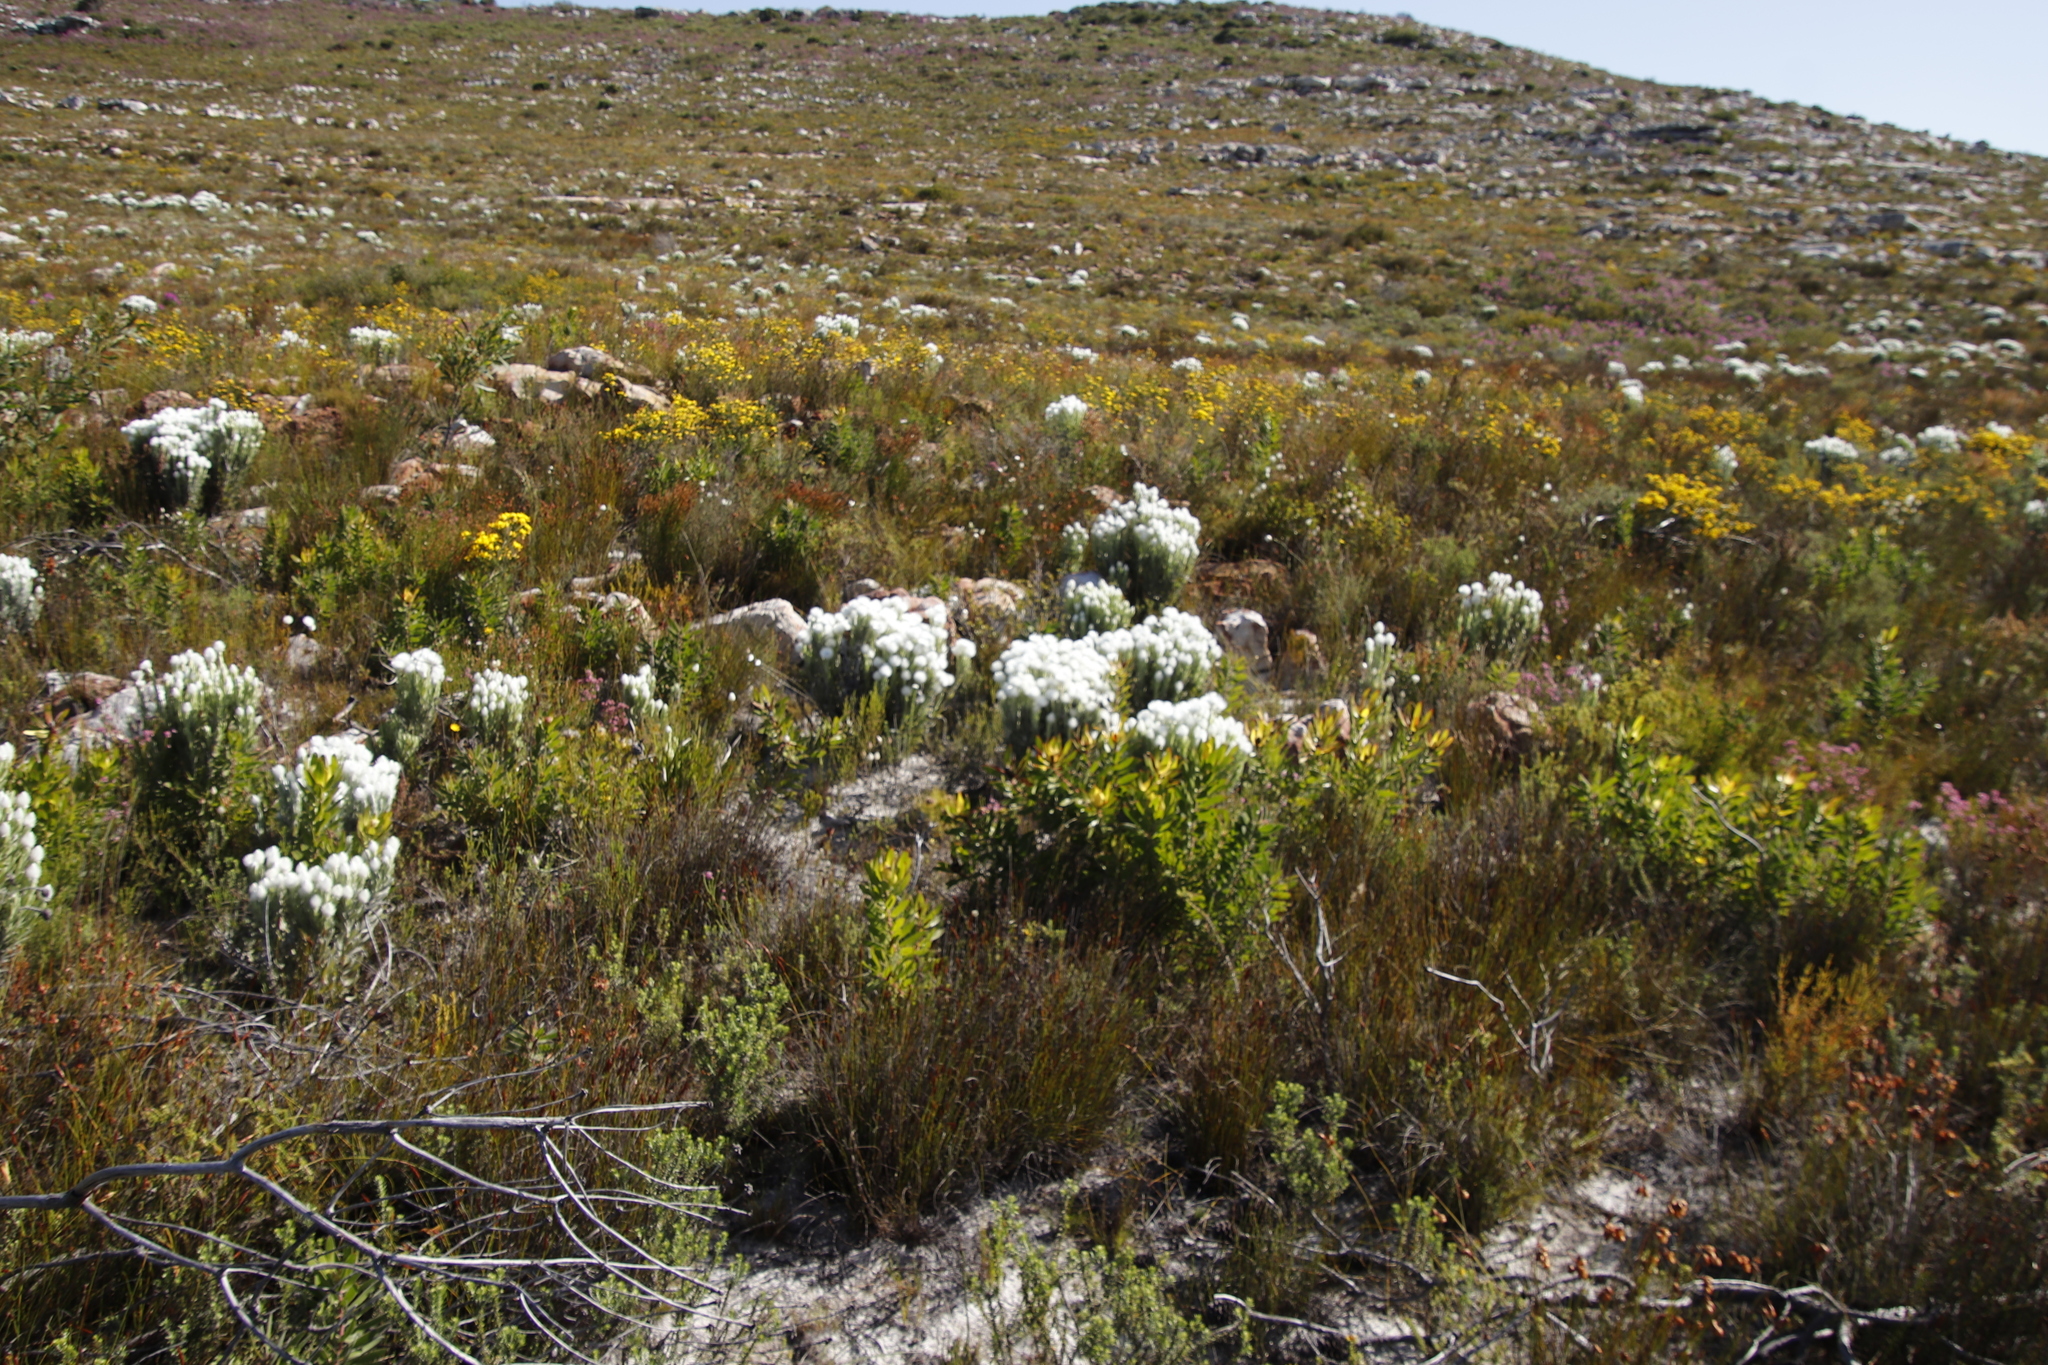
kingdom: Plantae
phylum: Tracheophyta
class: Magnoliopsida
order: Asterales
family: Asteraceae
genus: Syncarpha
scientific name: Syncarpha vestita
